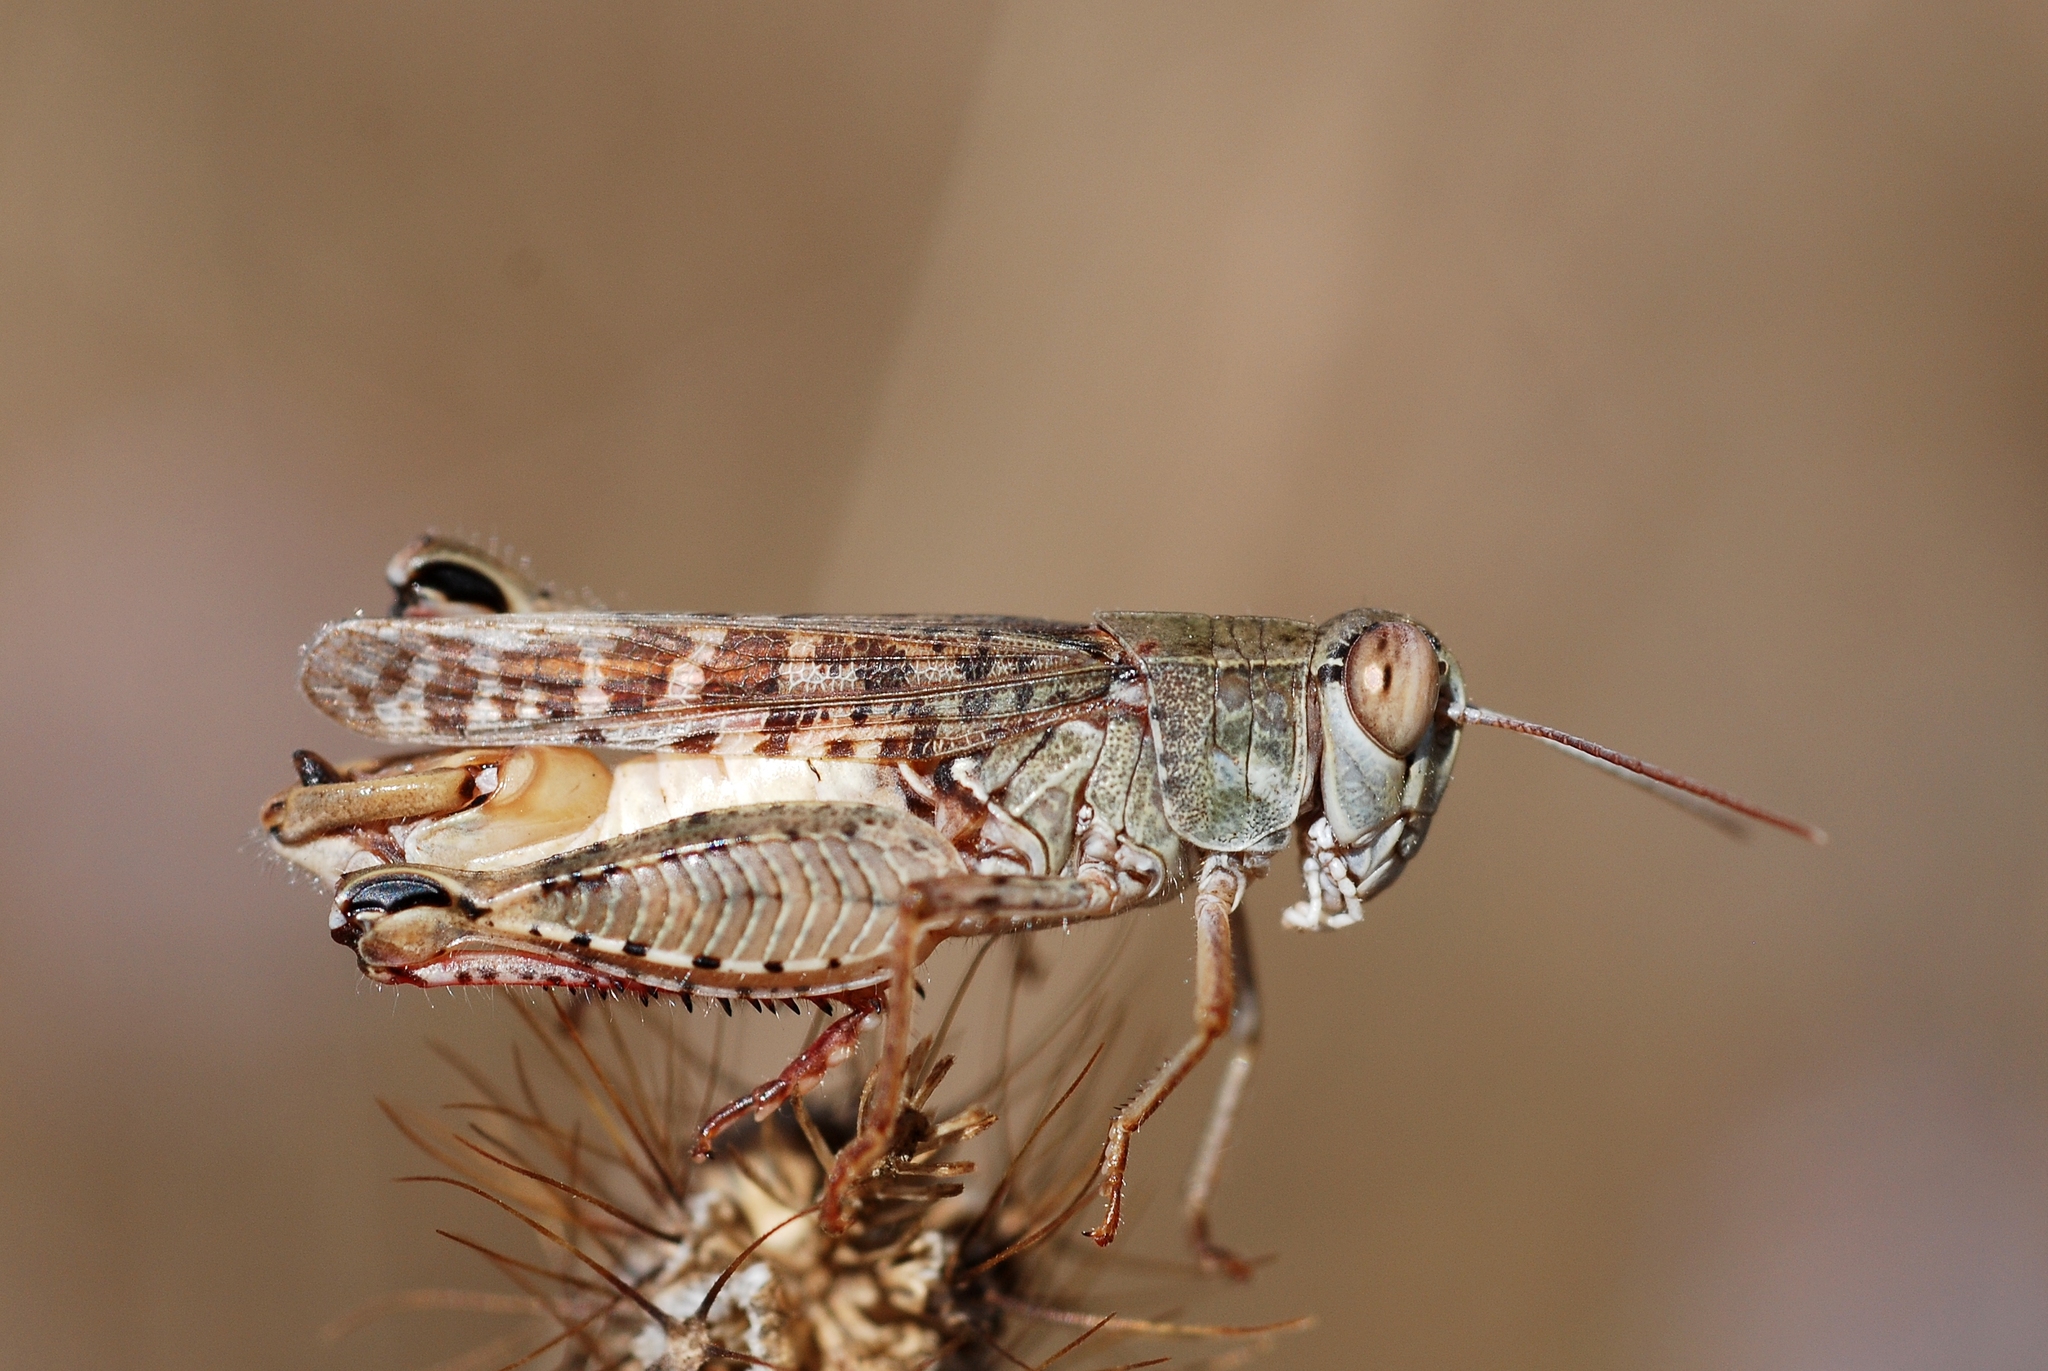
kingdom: Animalia
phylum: Arthropoda
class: Insecta
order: Orthoptera
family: Acrididae
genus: Calliptamus
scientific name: Calliptamus italicus
